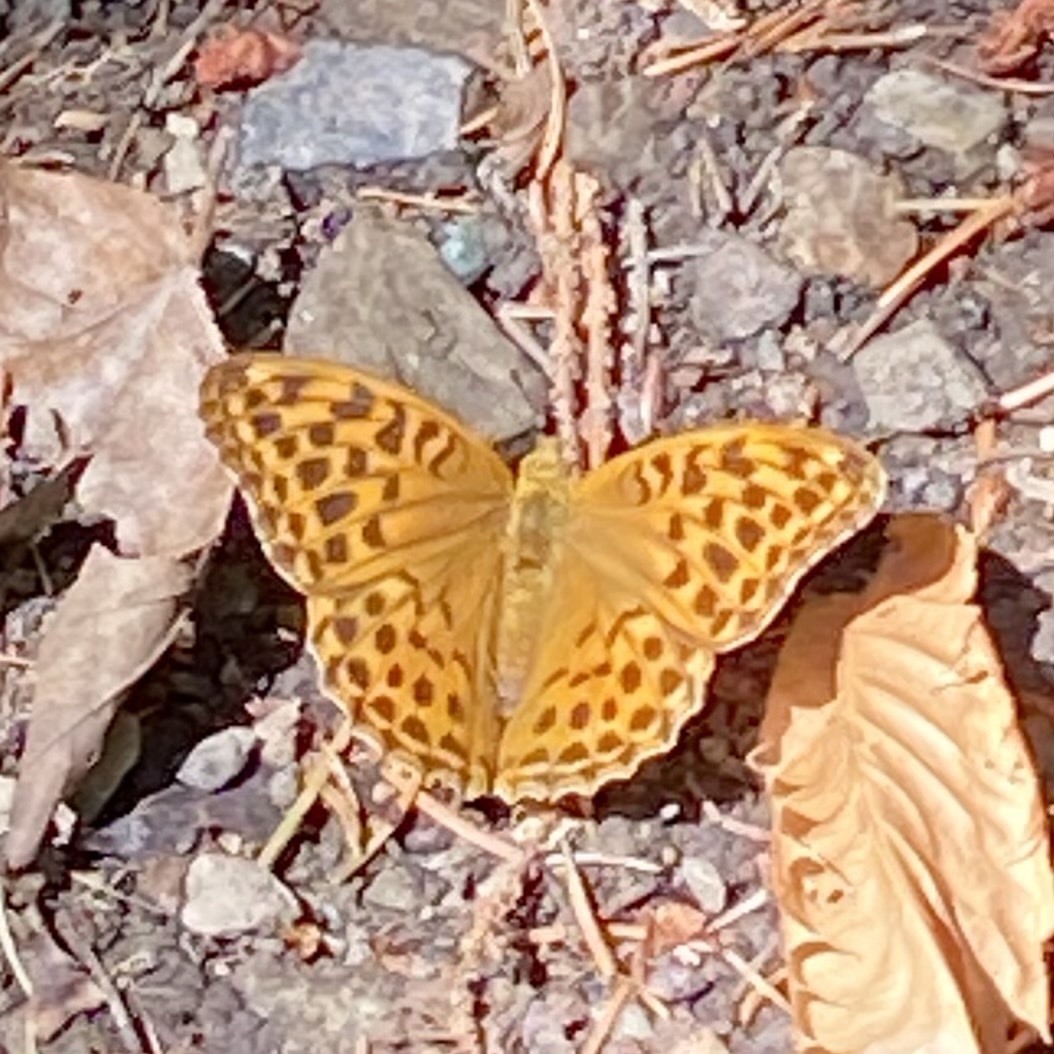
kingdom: Animalia
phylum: Arthropoda
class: Insecta
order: Lepidoptera
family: Nymphalidae
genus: Argynnis
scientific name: Argynnis paphia
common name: Silver-washed fritillary
